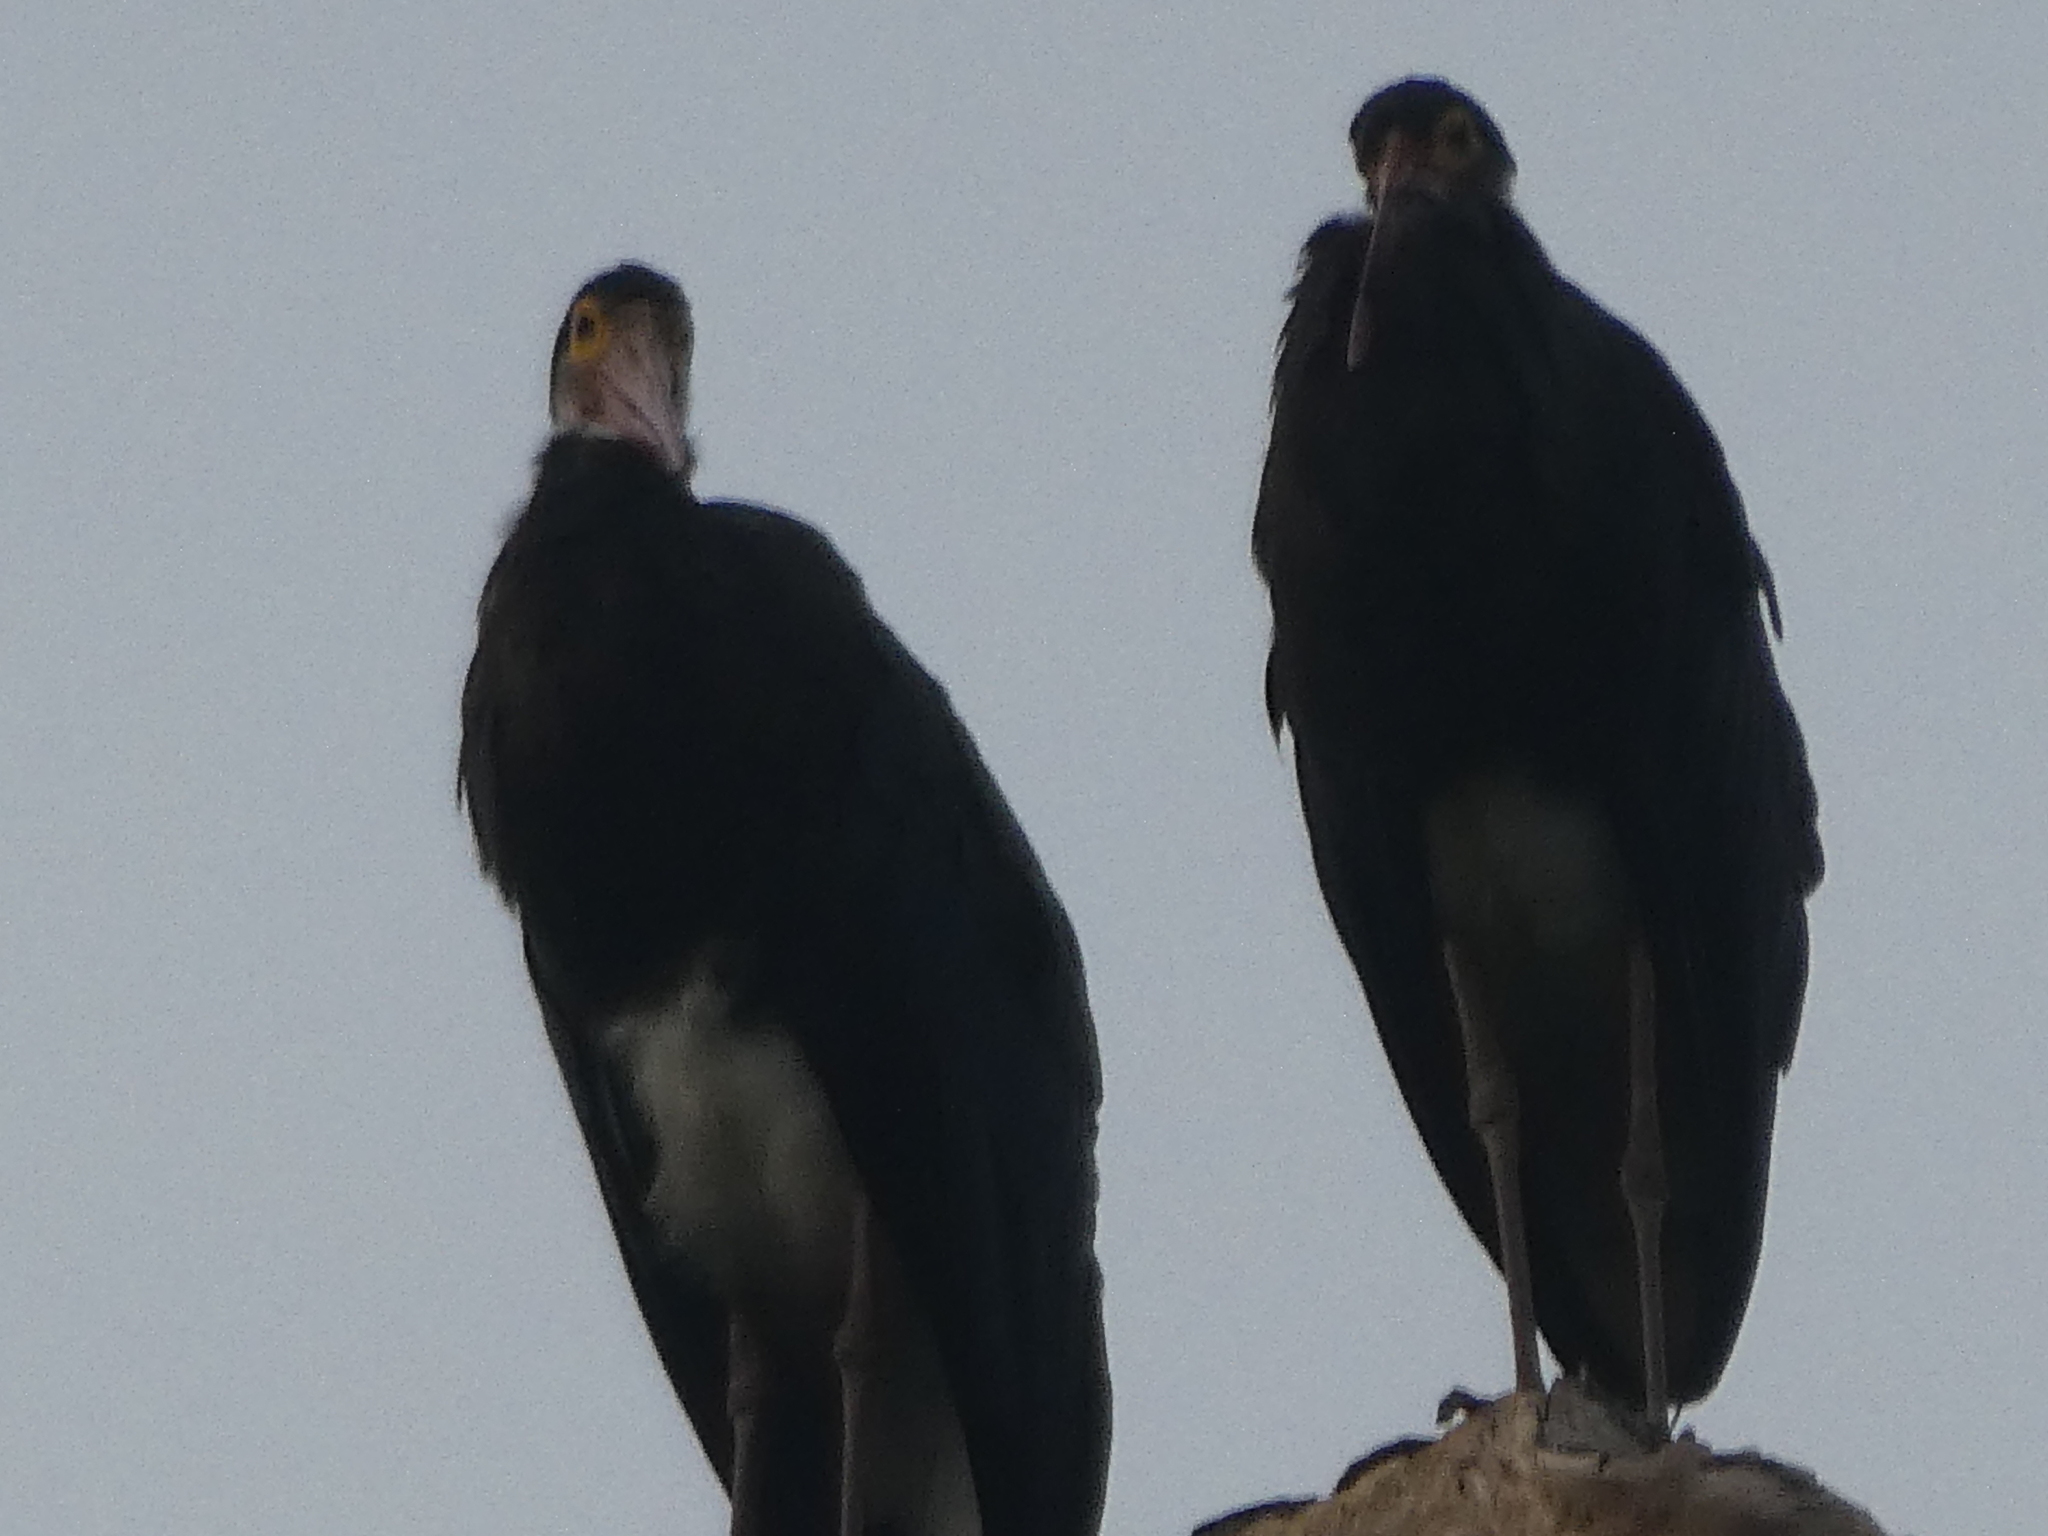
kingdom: Animalia
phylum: Chordata
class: Aves
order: Ciconiiformes
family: Ciconiidae
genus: Ciconia
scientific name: Ciconia stormi
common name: Storm's stork
